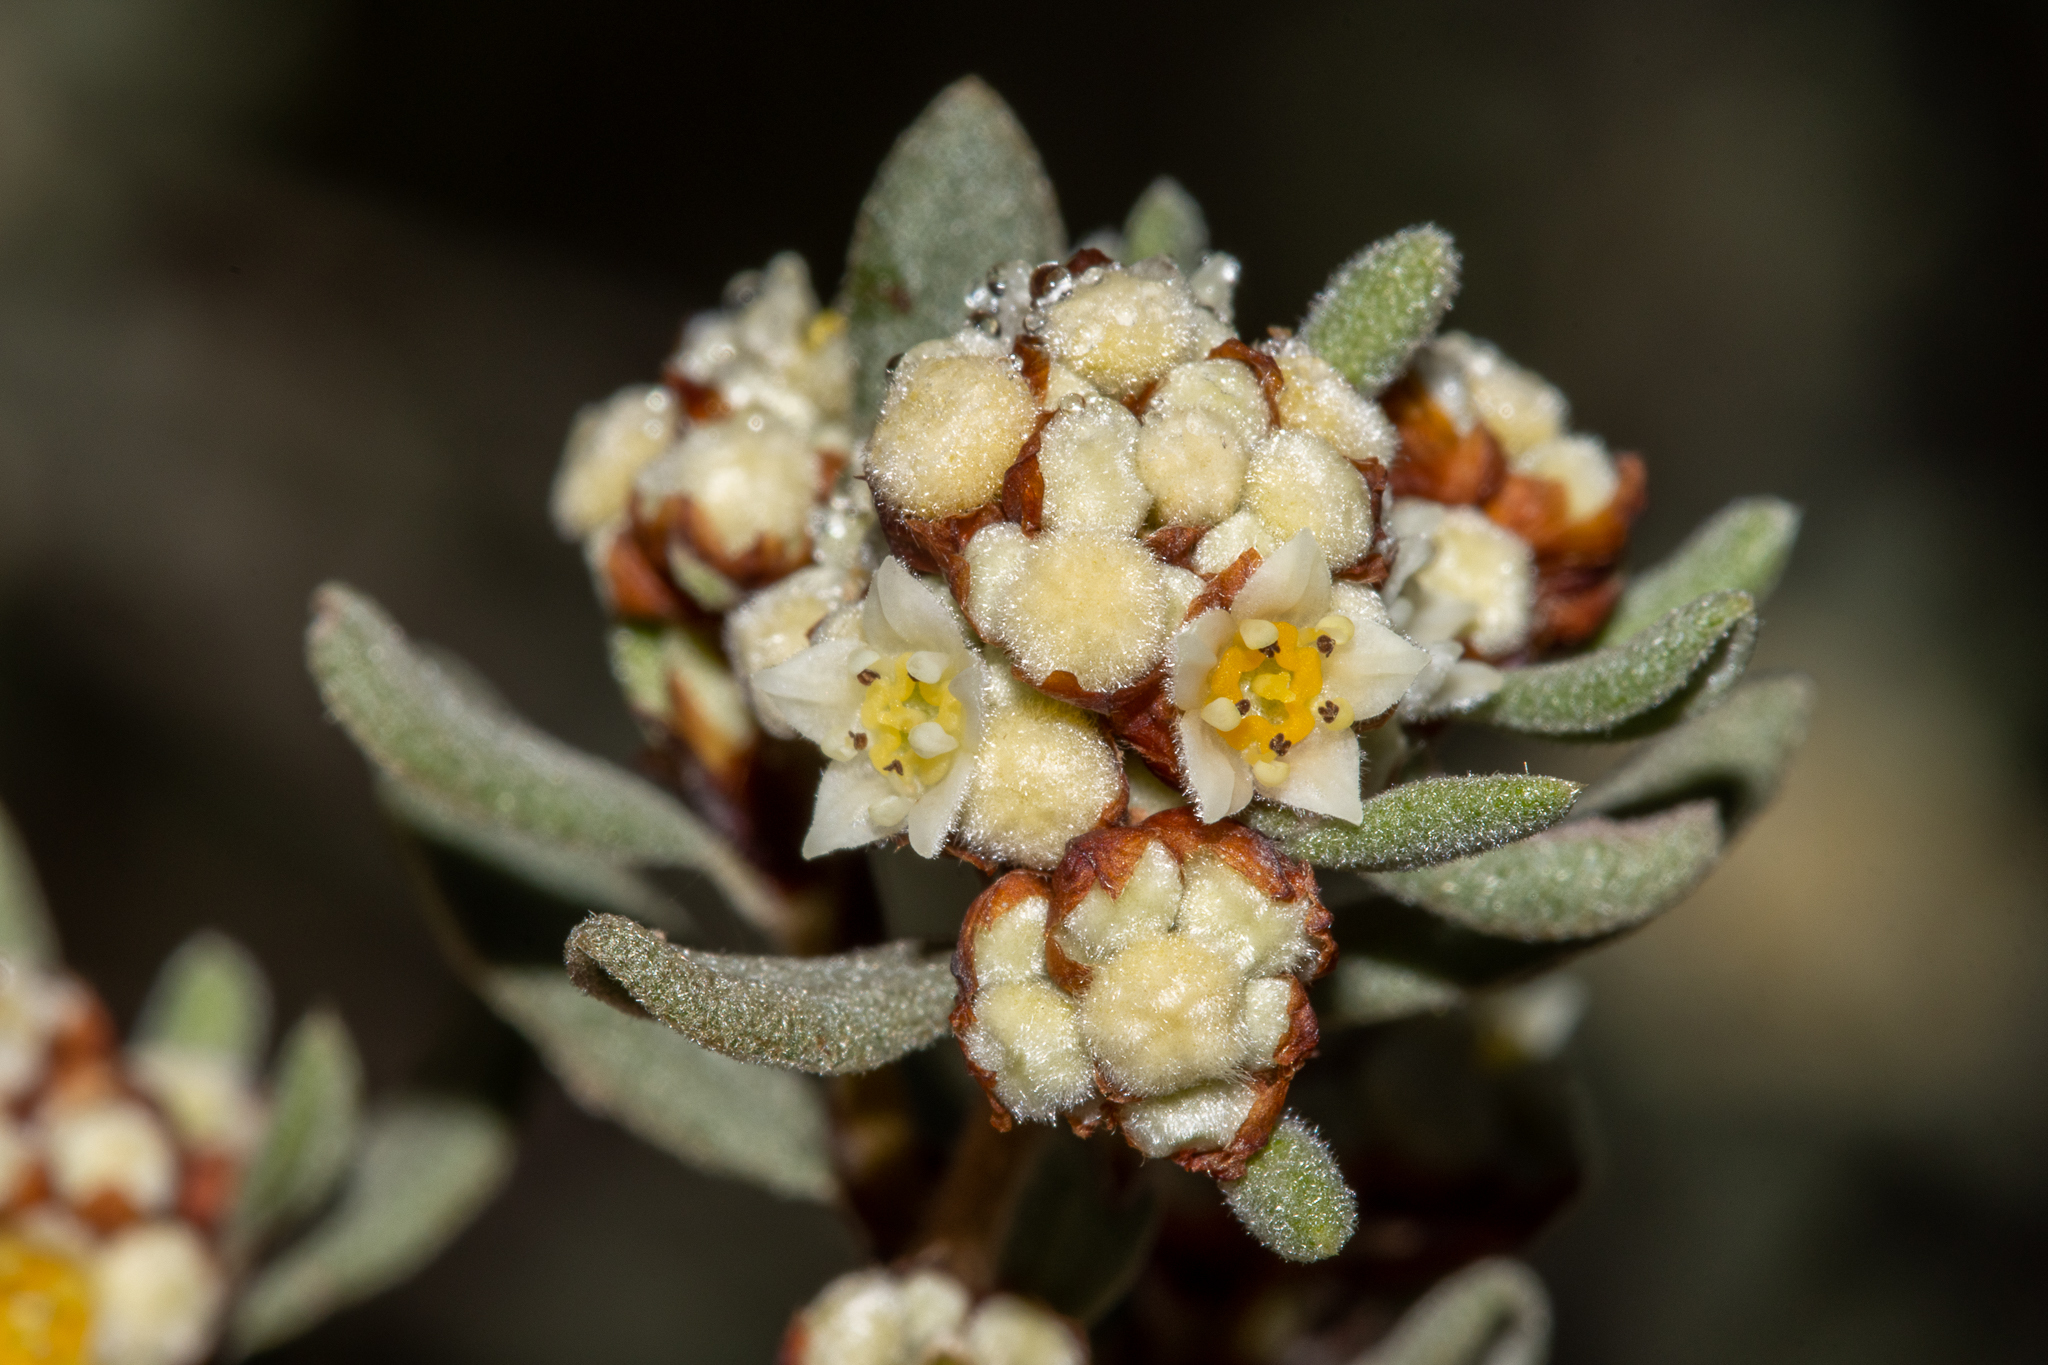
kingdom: Plantae
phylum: Tracheophyta
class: Magnoliopsida
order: Rosales
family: Rhamnaceae
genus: Spyridium
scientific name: Spyridium subochreatum
